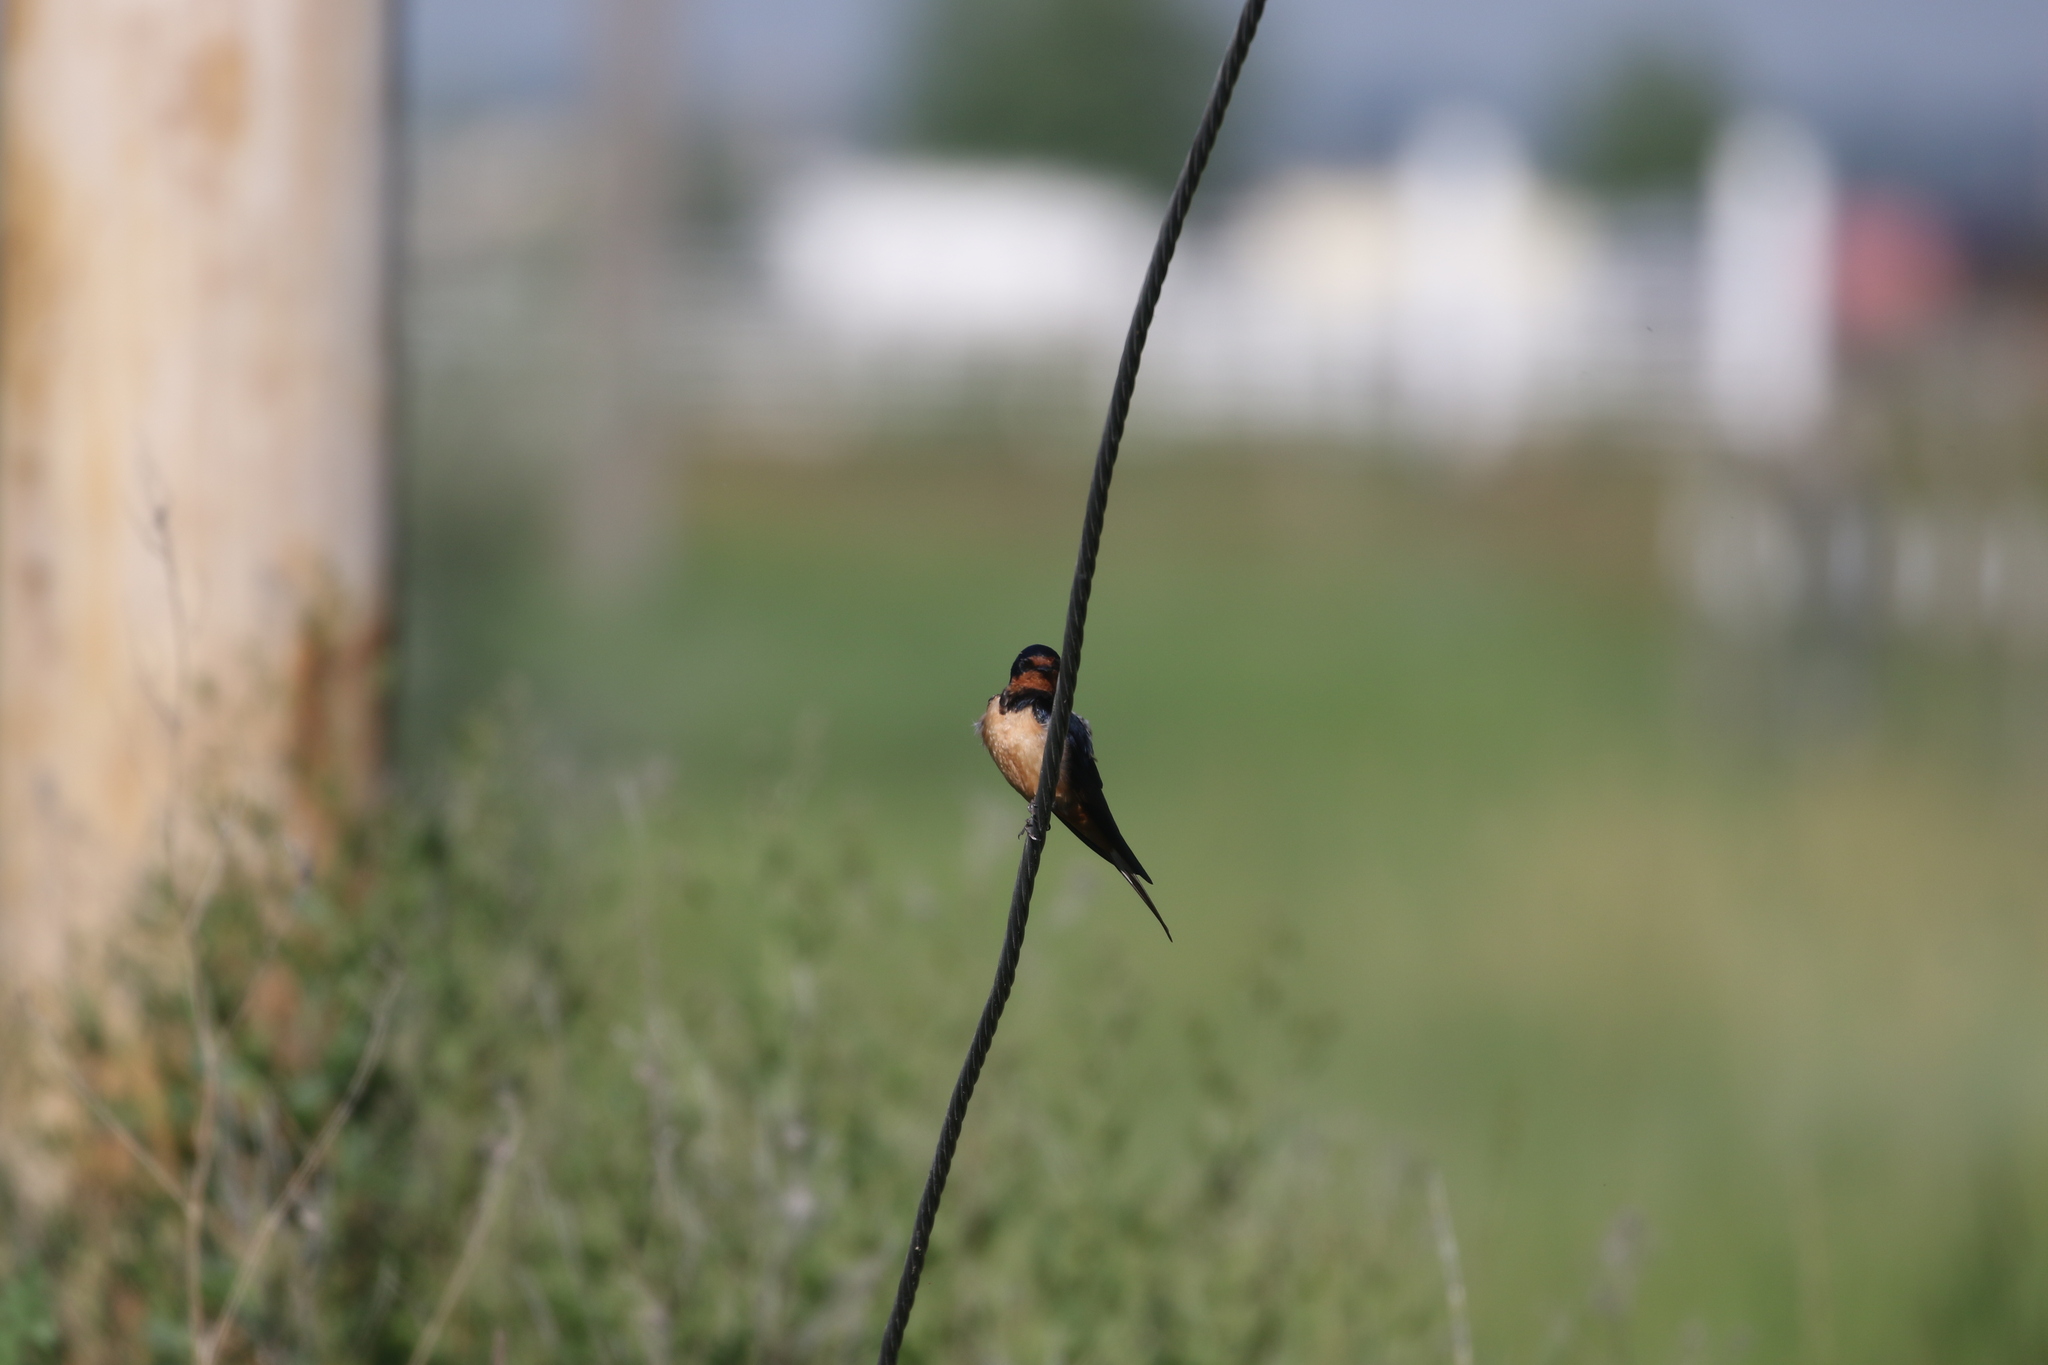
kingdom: Animalia
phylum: Chordata
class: Aves
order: Passeriformes
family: Hirundinidae
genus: Hirundo
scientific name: Hirundo rustica
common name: Barn swallow
